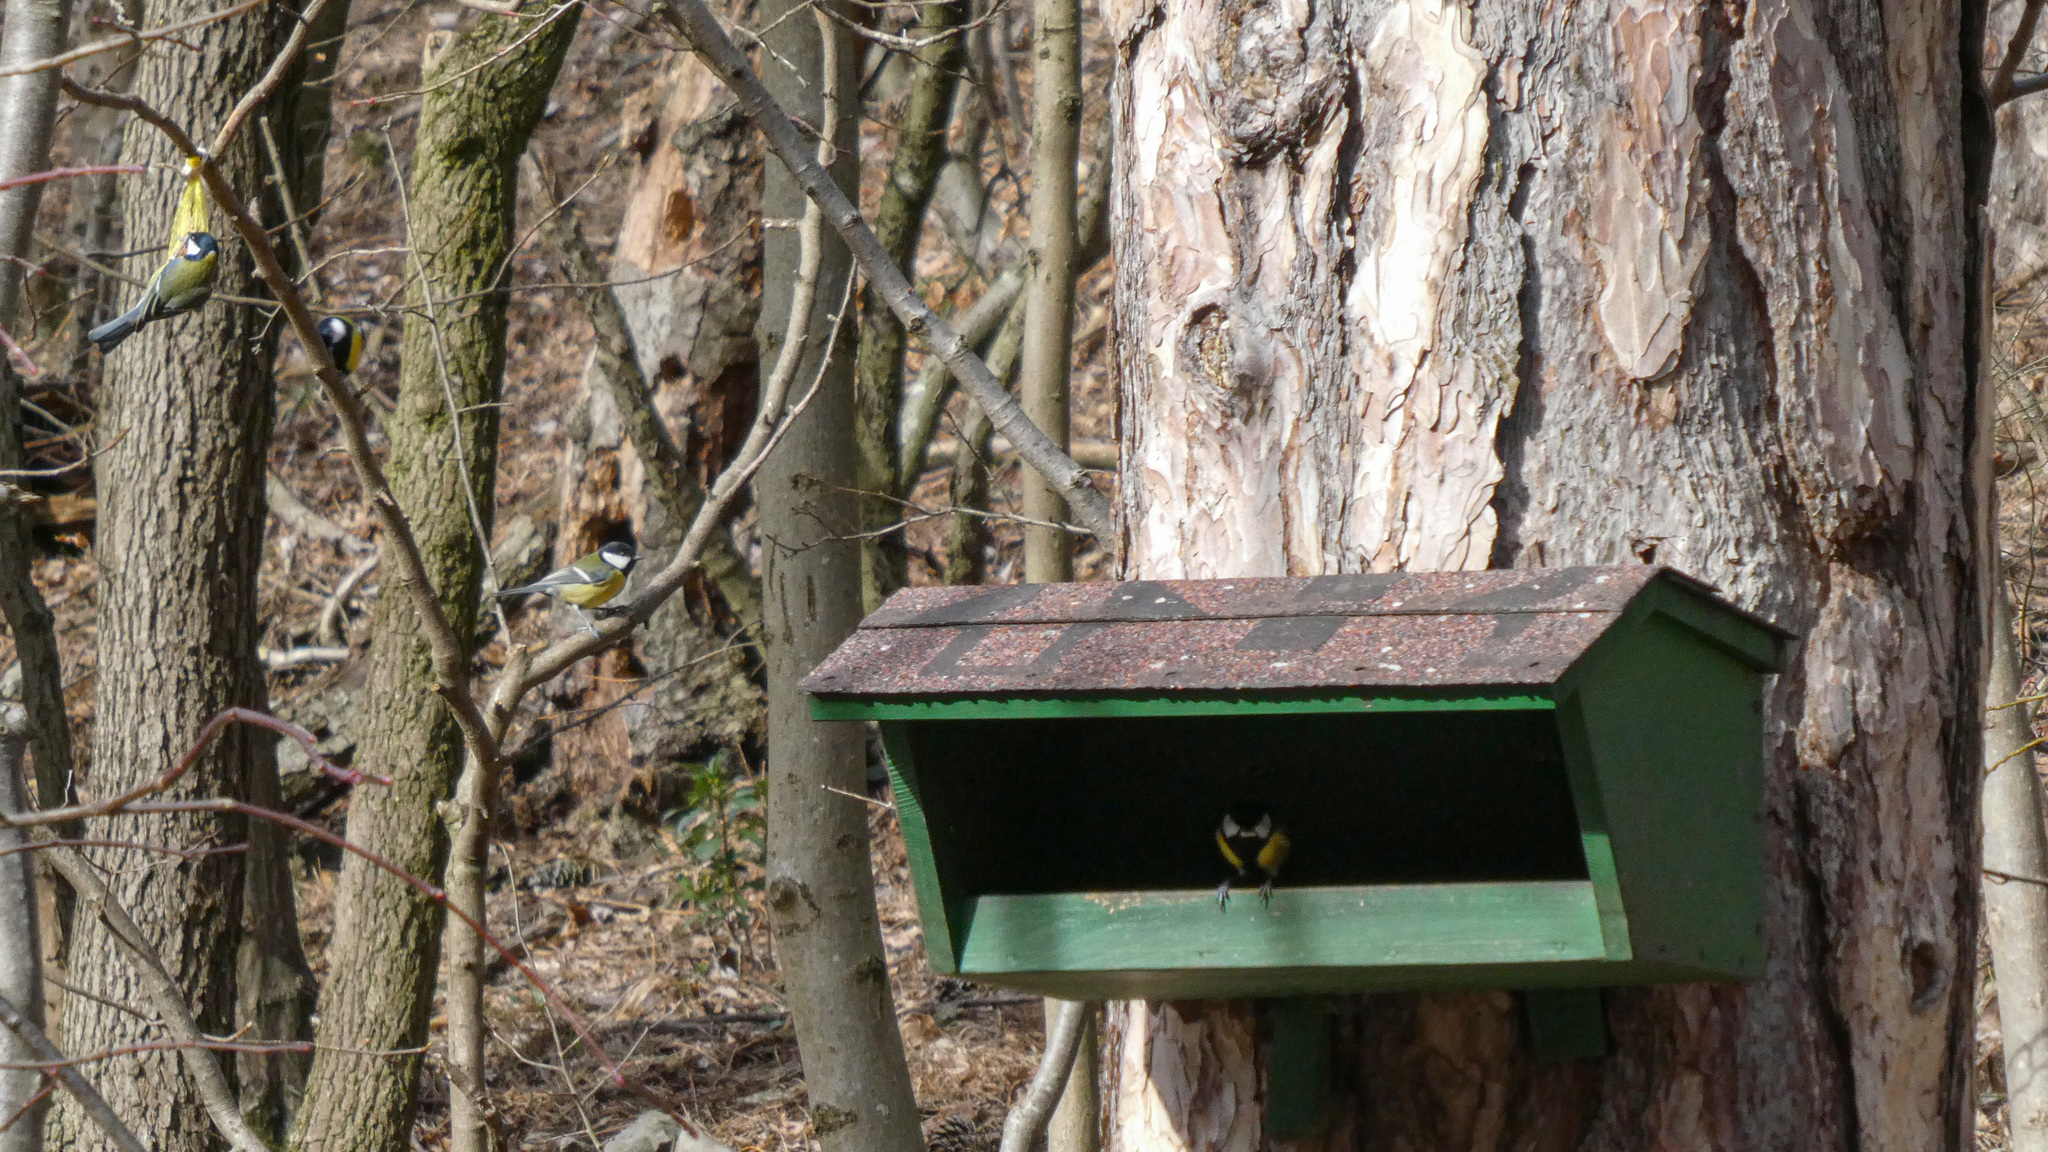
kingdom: Animalia
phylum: Chordata
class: Aves
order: Passeriformes
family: Paridae
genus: Parus
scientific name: Parus major
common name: Great tit
